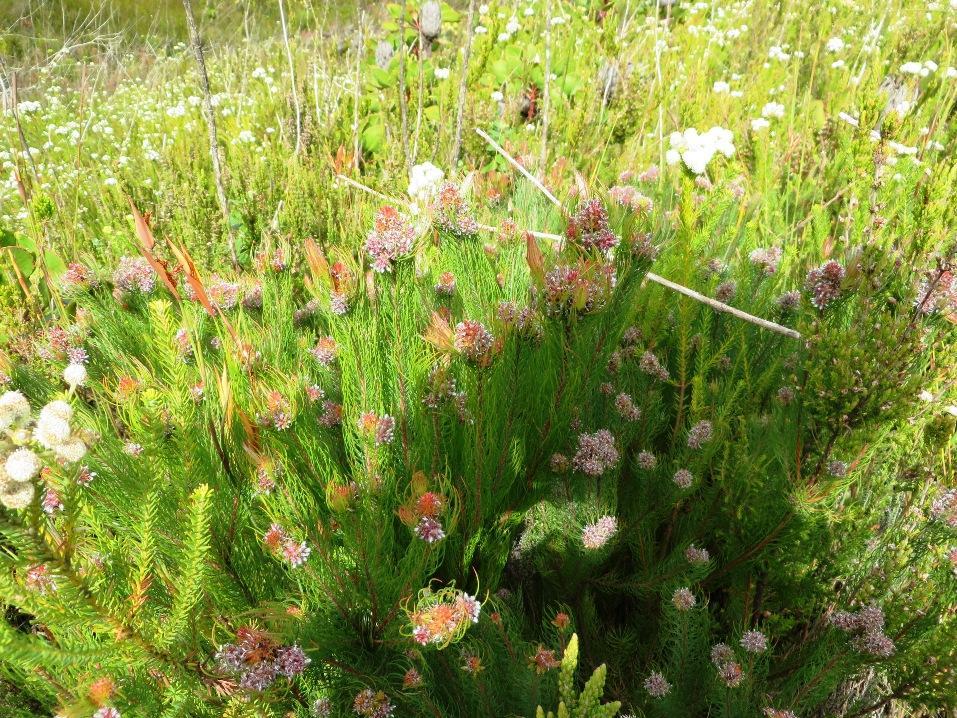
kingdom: Plantae
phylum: Tracheophyta
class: Magnoliopsida
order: Proteales
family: Proteaceae
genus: Spatalla
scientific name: Spatalla setacea
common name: Needle-leaf spoon
